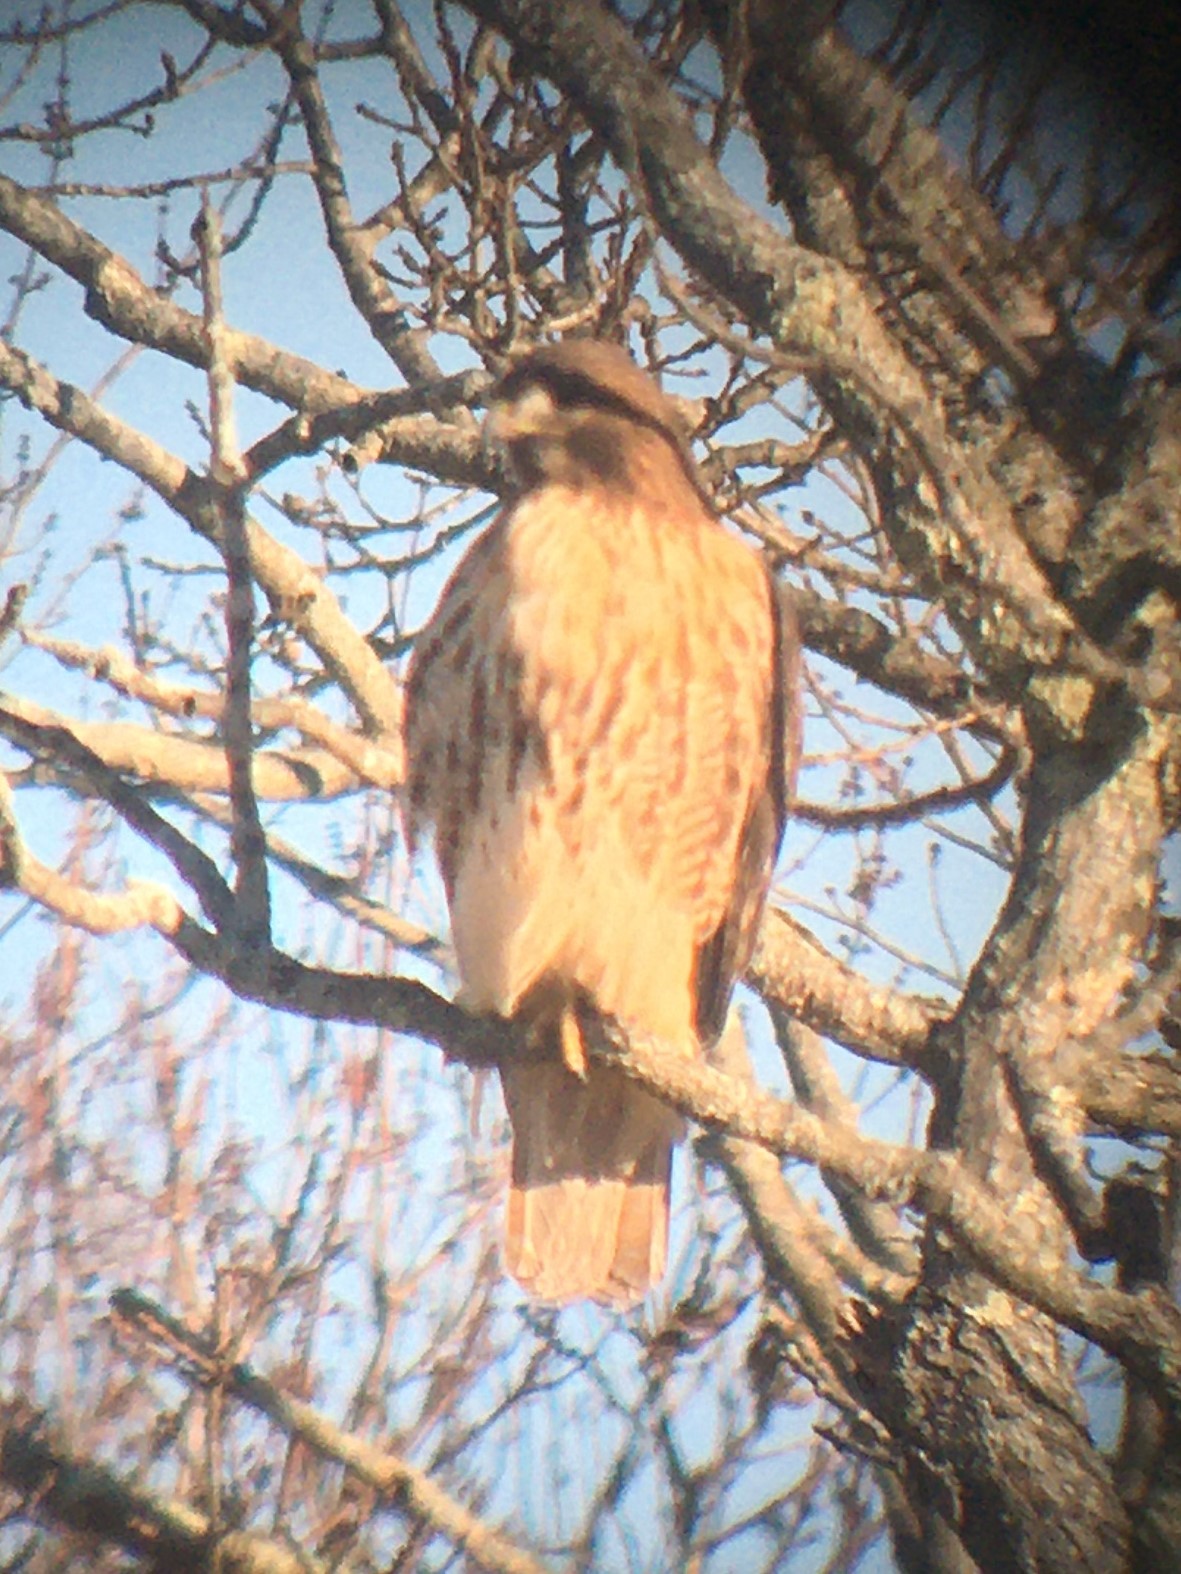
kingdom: Animalia
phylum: Chordata
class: Aves
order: Accipitriformes
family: Accipitridae
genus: Buteo
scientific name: Buteo jamaicensis
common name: Red-tailed hawk
